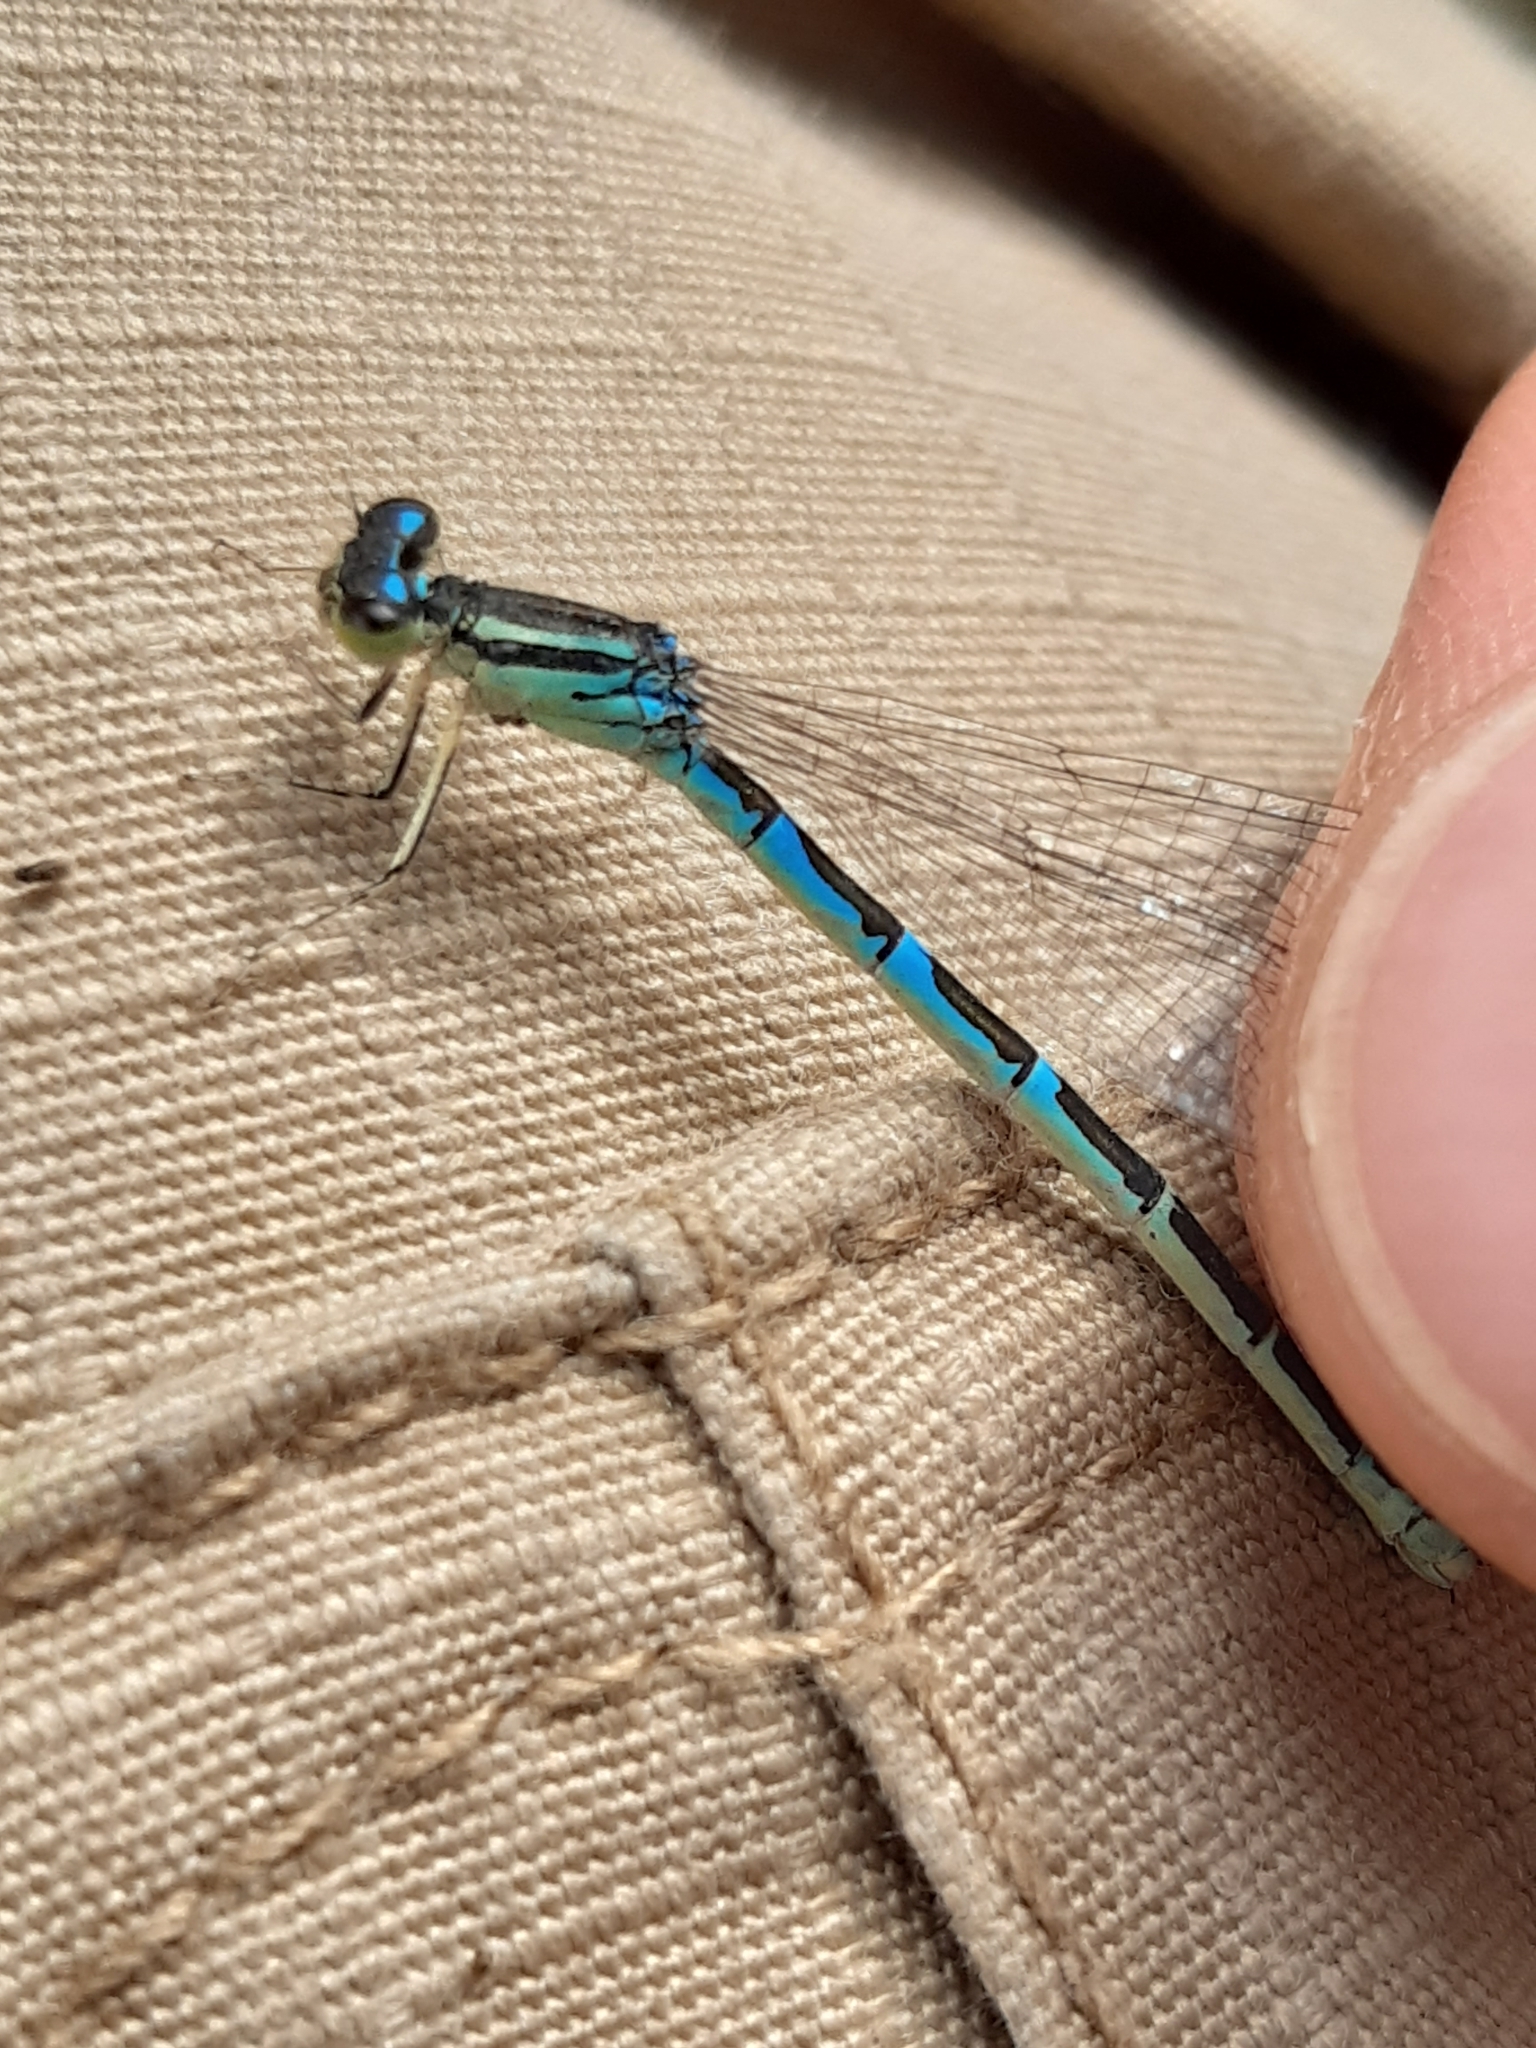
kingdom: Animalia
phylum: Arthropoda
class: Insecta
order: Odonata
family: Coenagrionidae
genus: Coenagrion
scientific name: Coenagrion scitulum
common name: Dainty bluet
